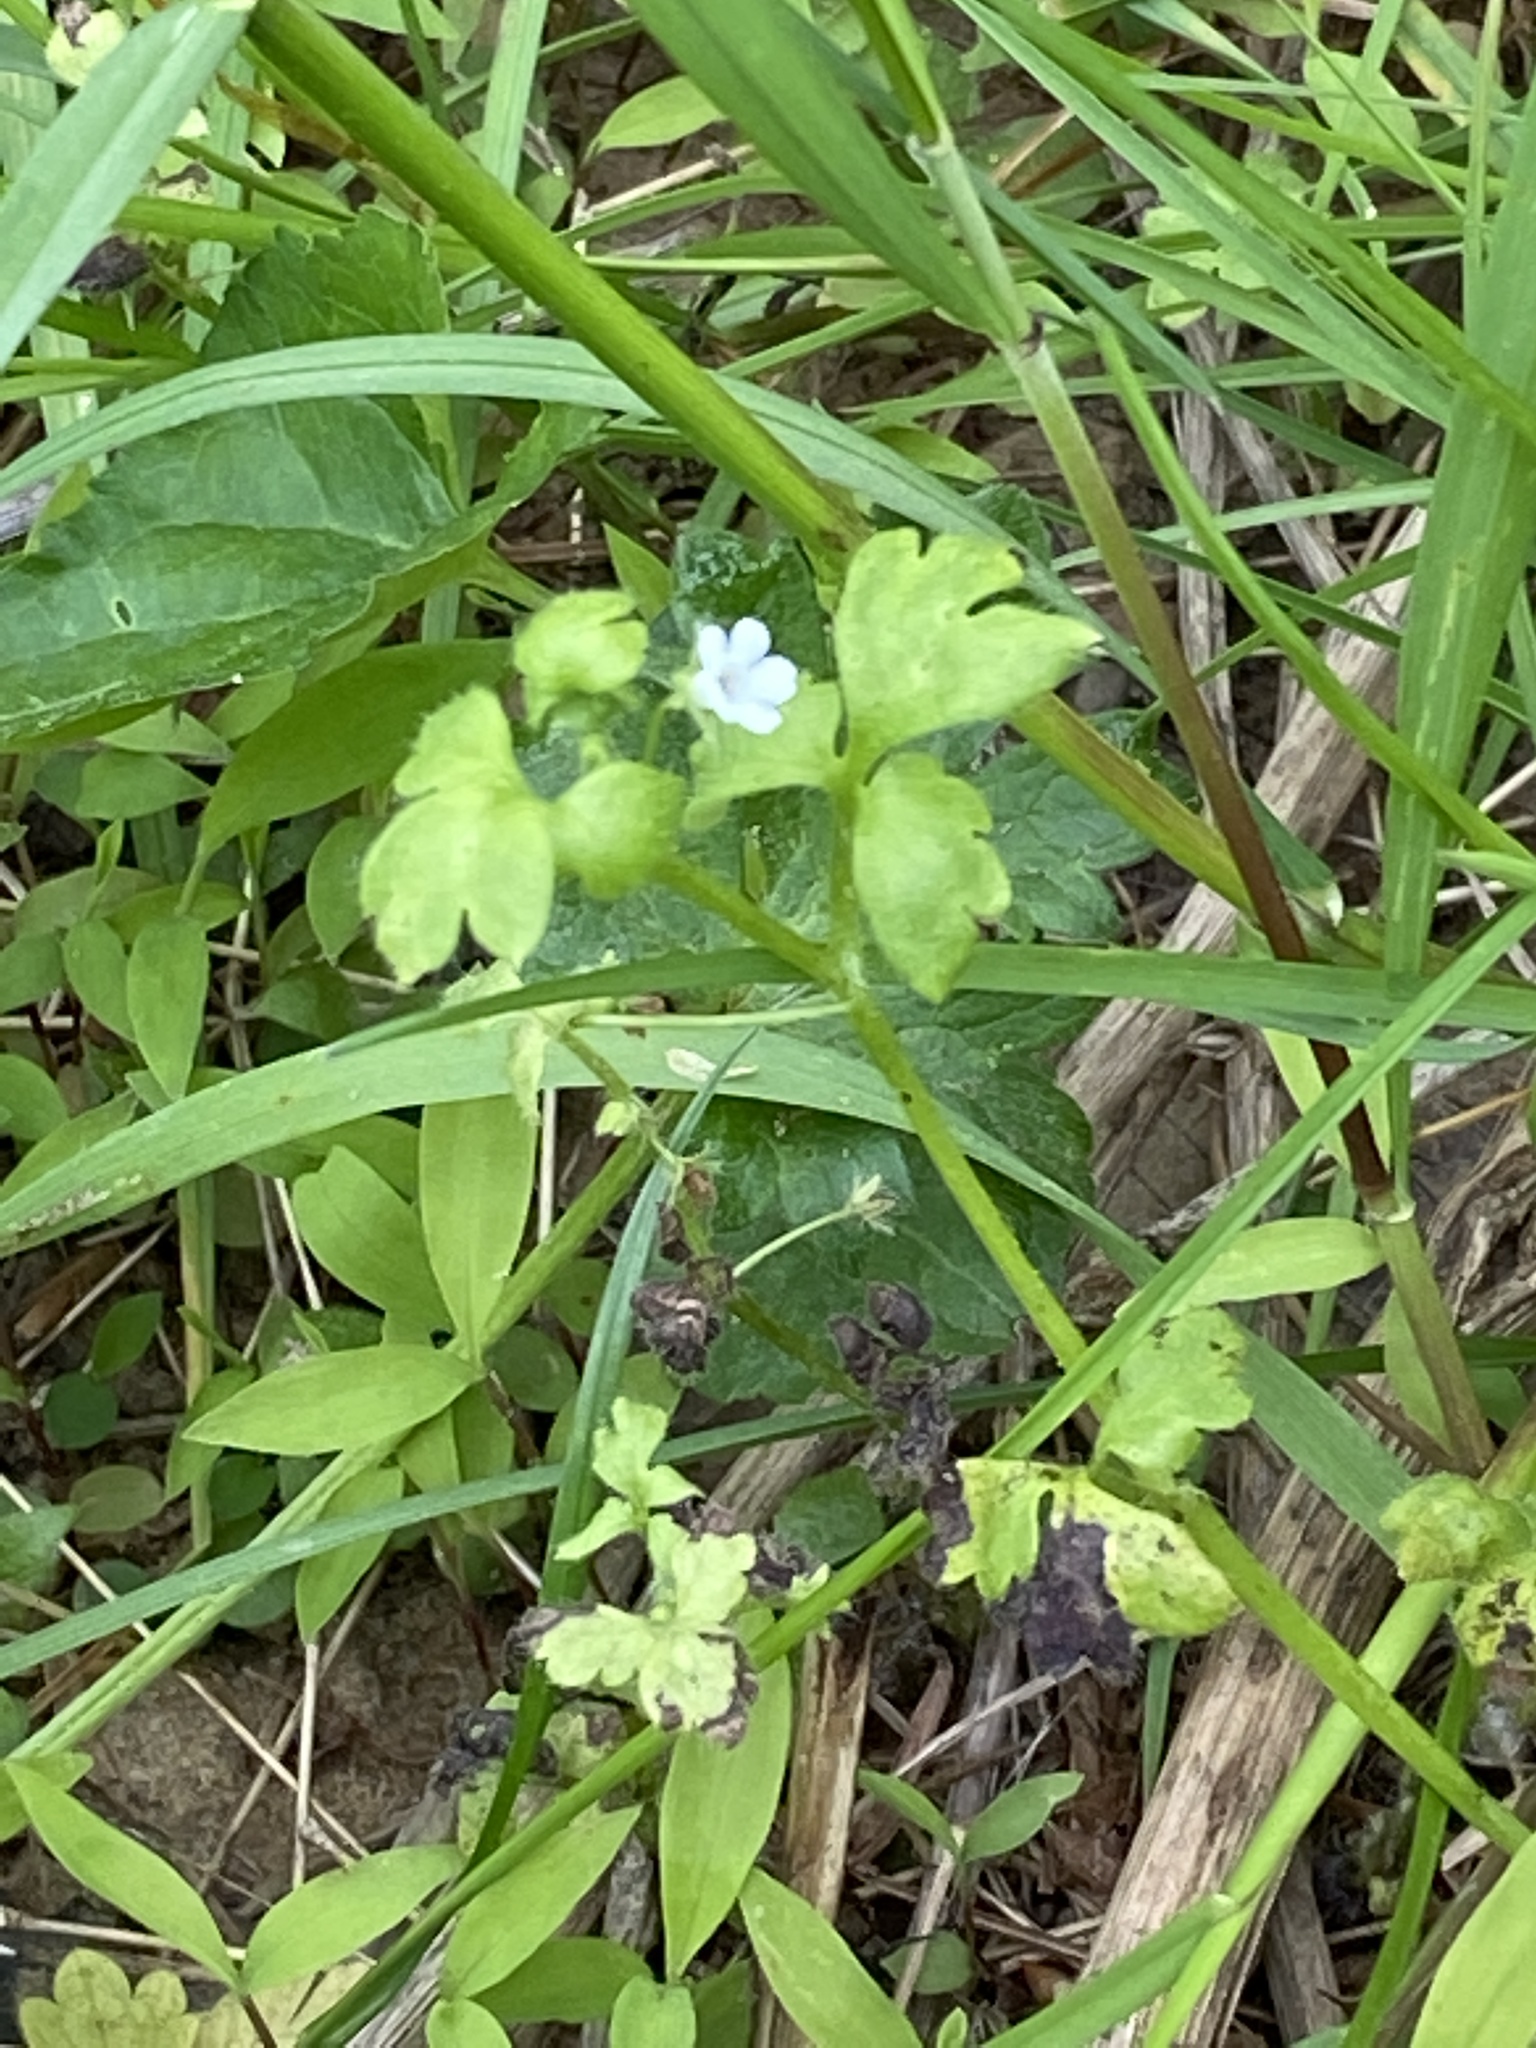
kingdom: Plantae
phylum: Tracheophyta
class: Magnoliopsida
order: Boraginales
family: Hydrophyllaceae
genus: Nemophila
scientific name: Nemophila aphylla
